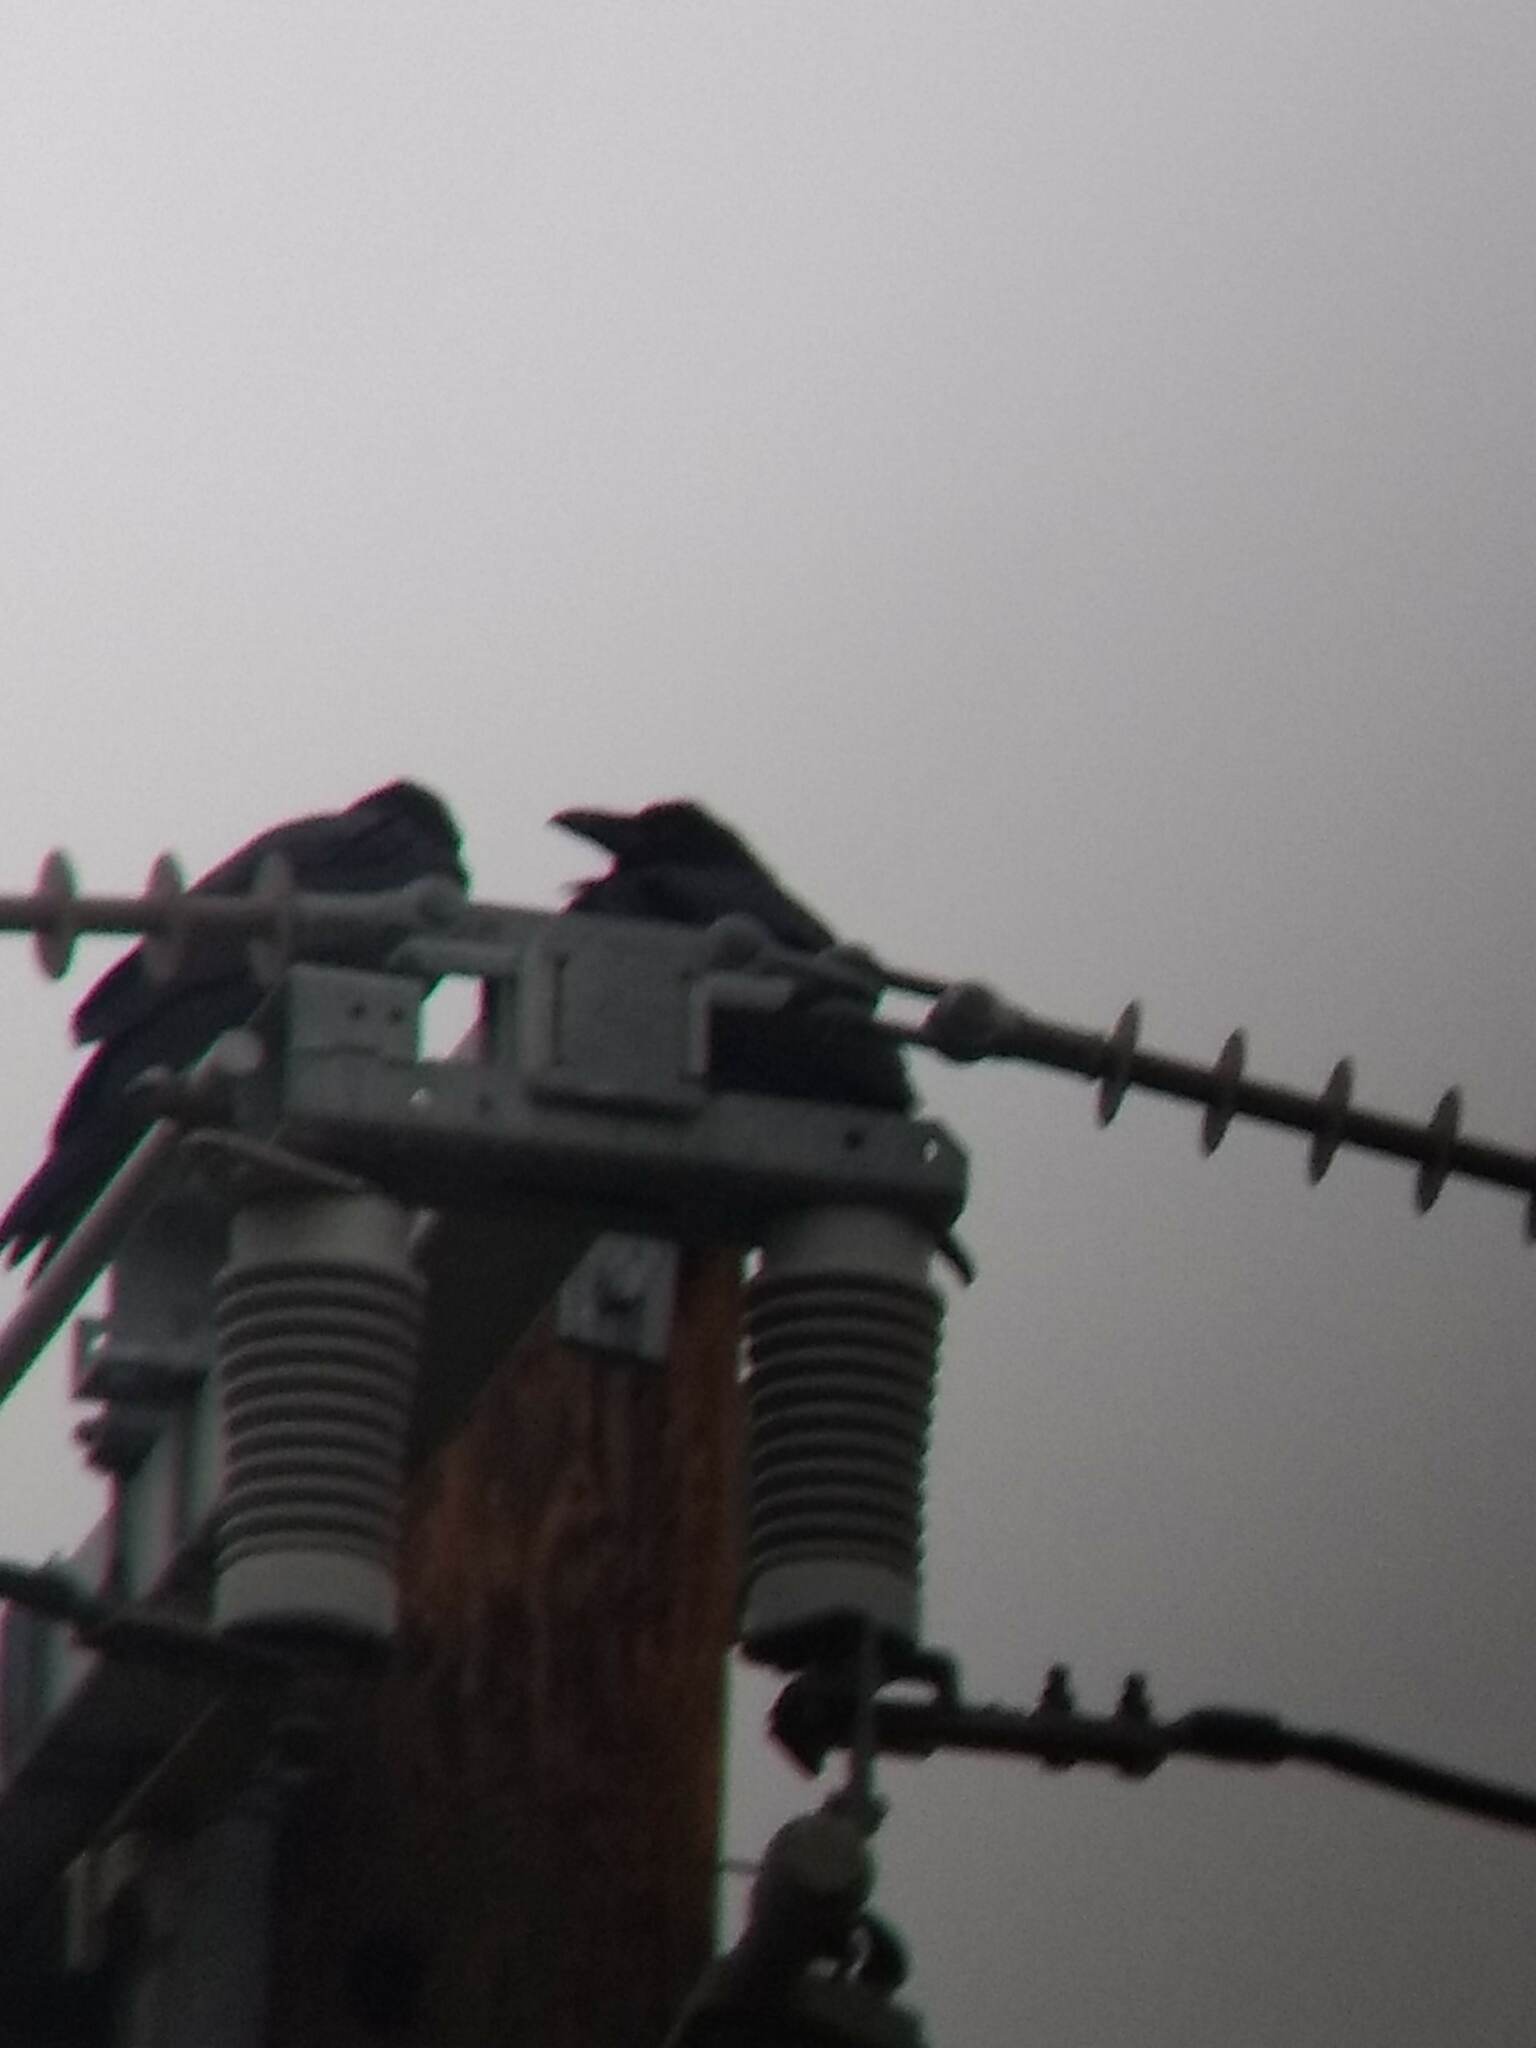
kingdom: Animalia
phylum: Chordata
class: Aves
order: Passeriformes
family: Corvidae
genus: Corvus
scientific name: Corvus corax
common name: Common raven
